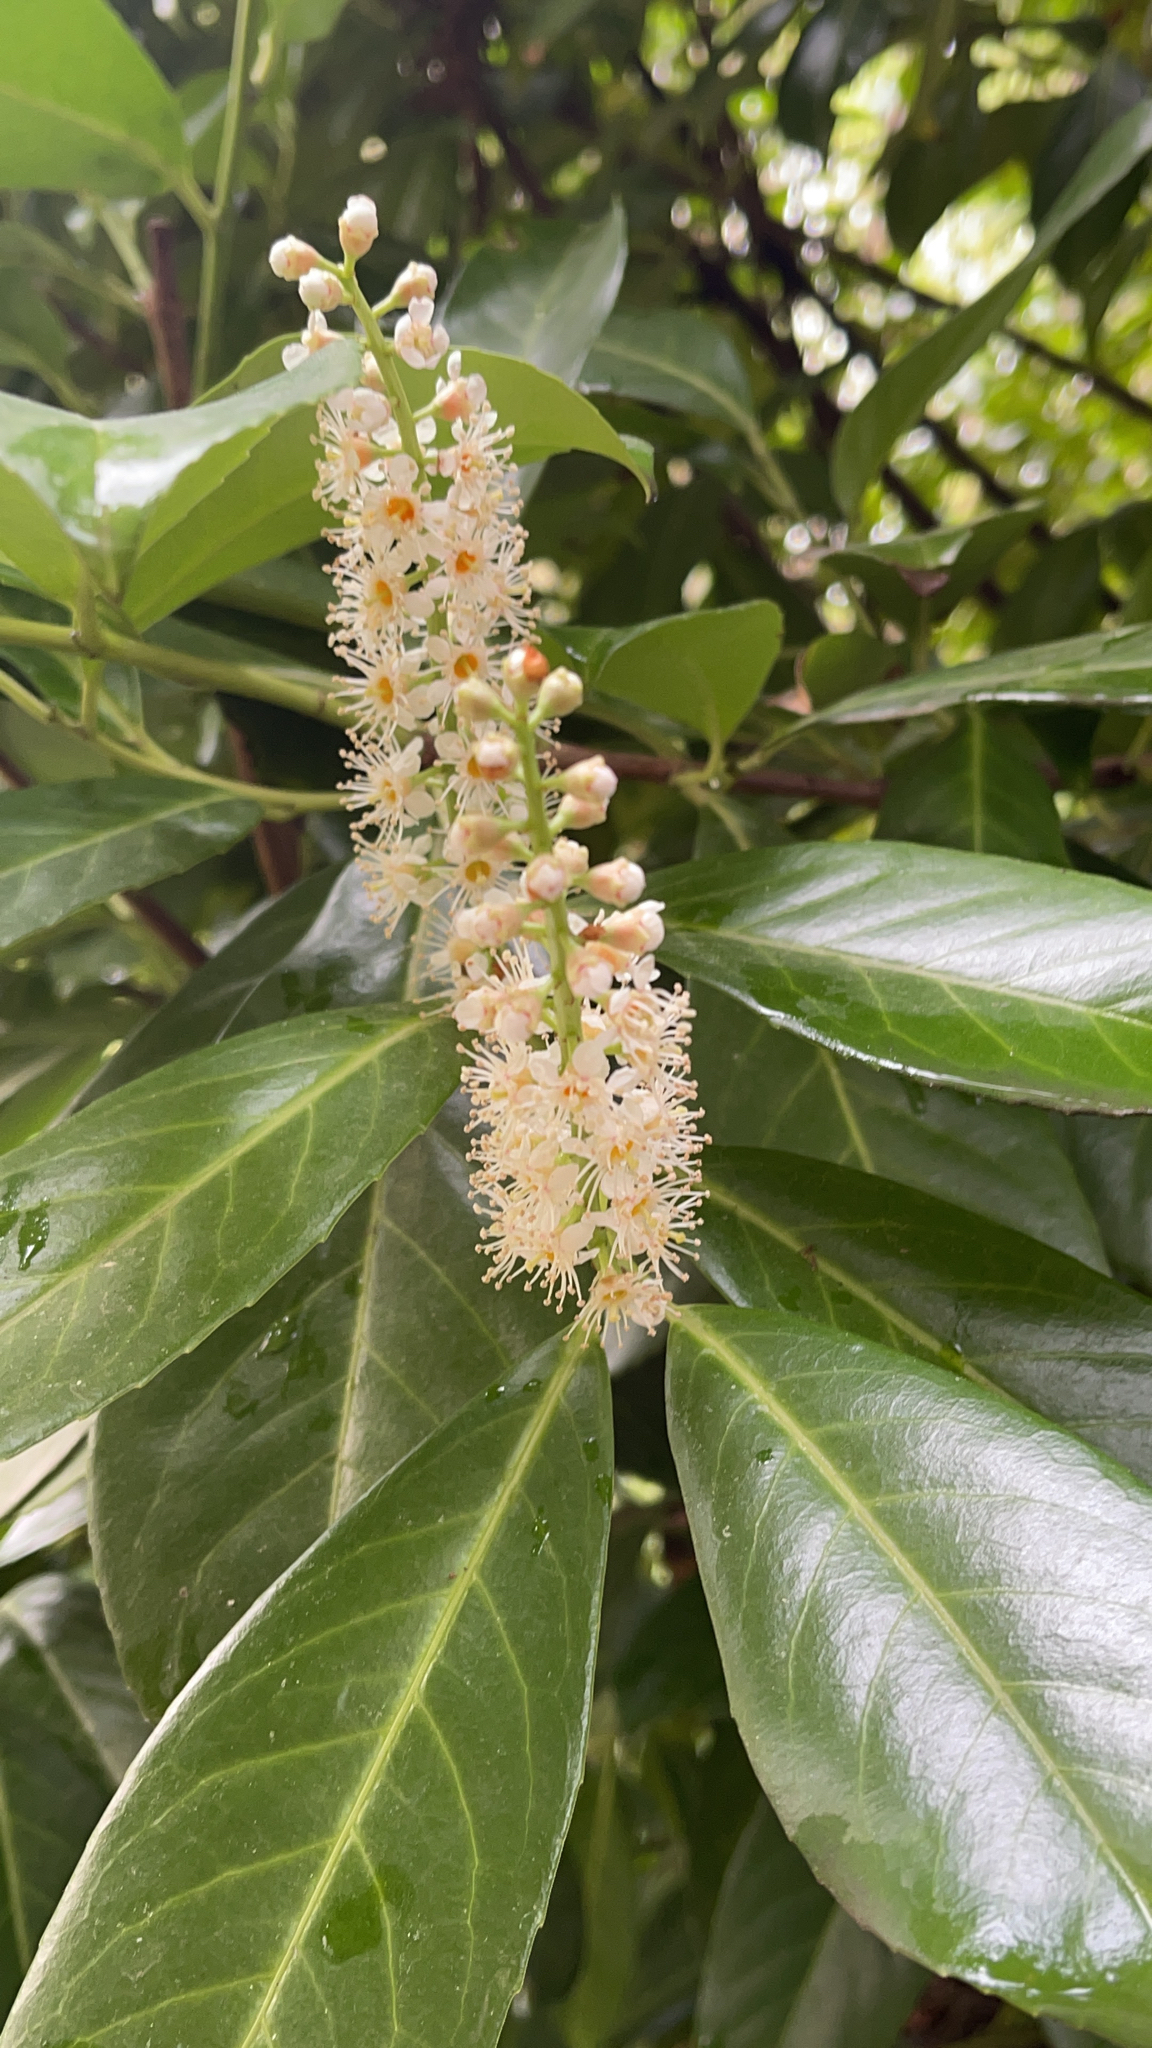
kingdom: Plantae
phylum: Tracheophyta
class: Magnoliopsida
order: Rosales
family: Rosaceae
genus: Prunus
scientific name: Prunus laurocerasus
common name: Cherry laurel
